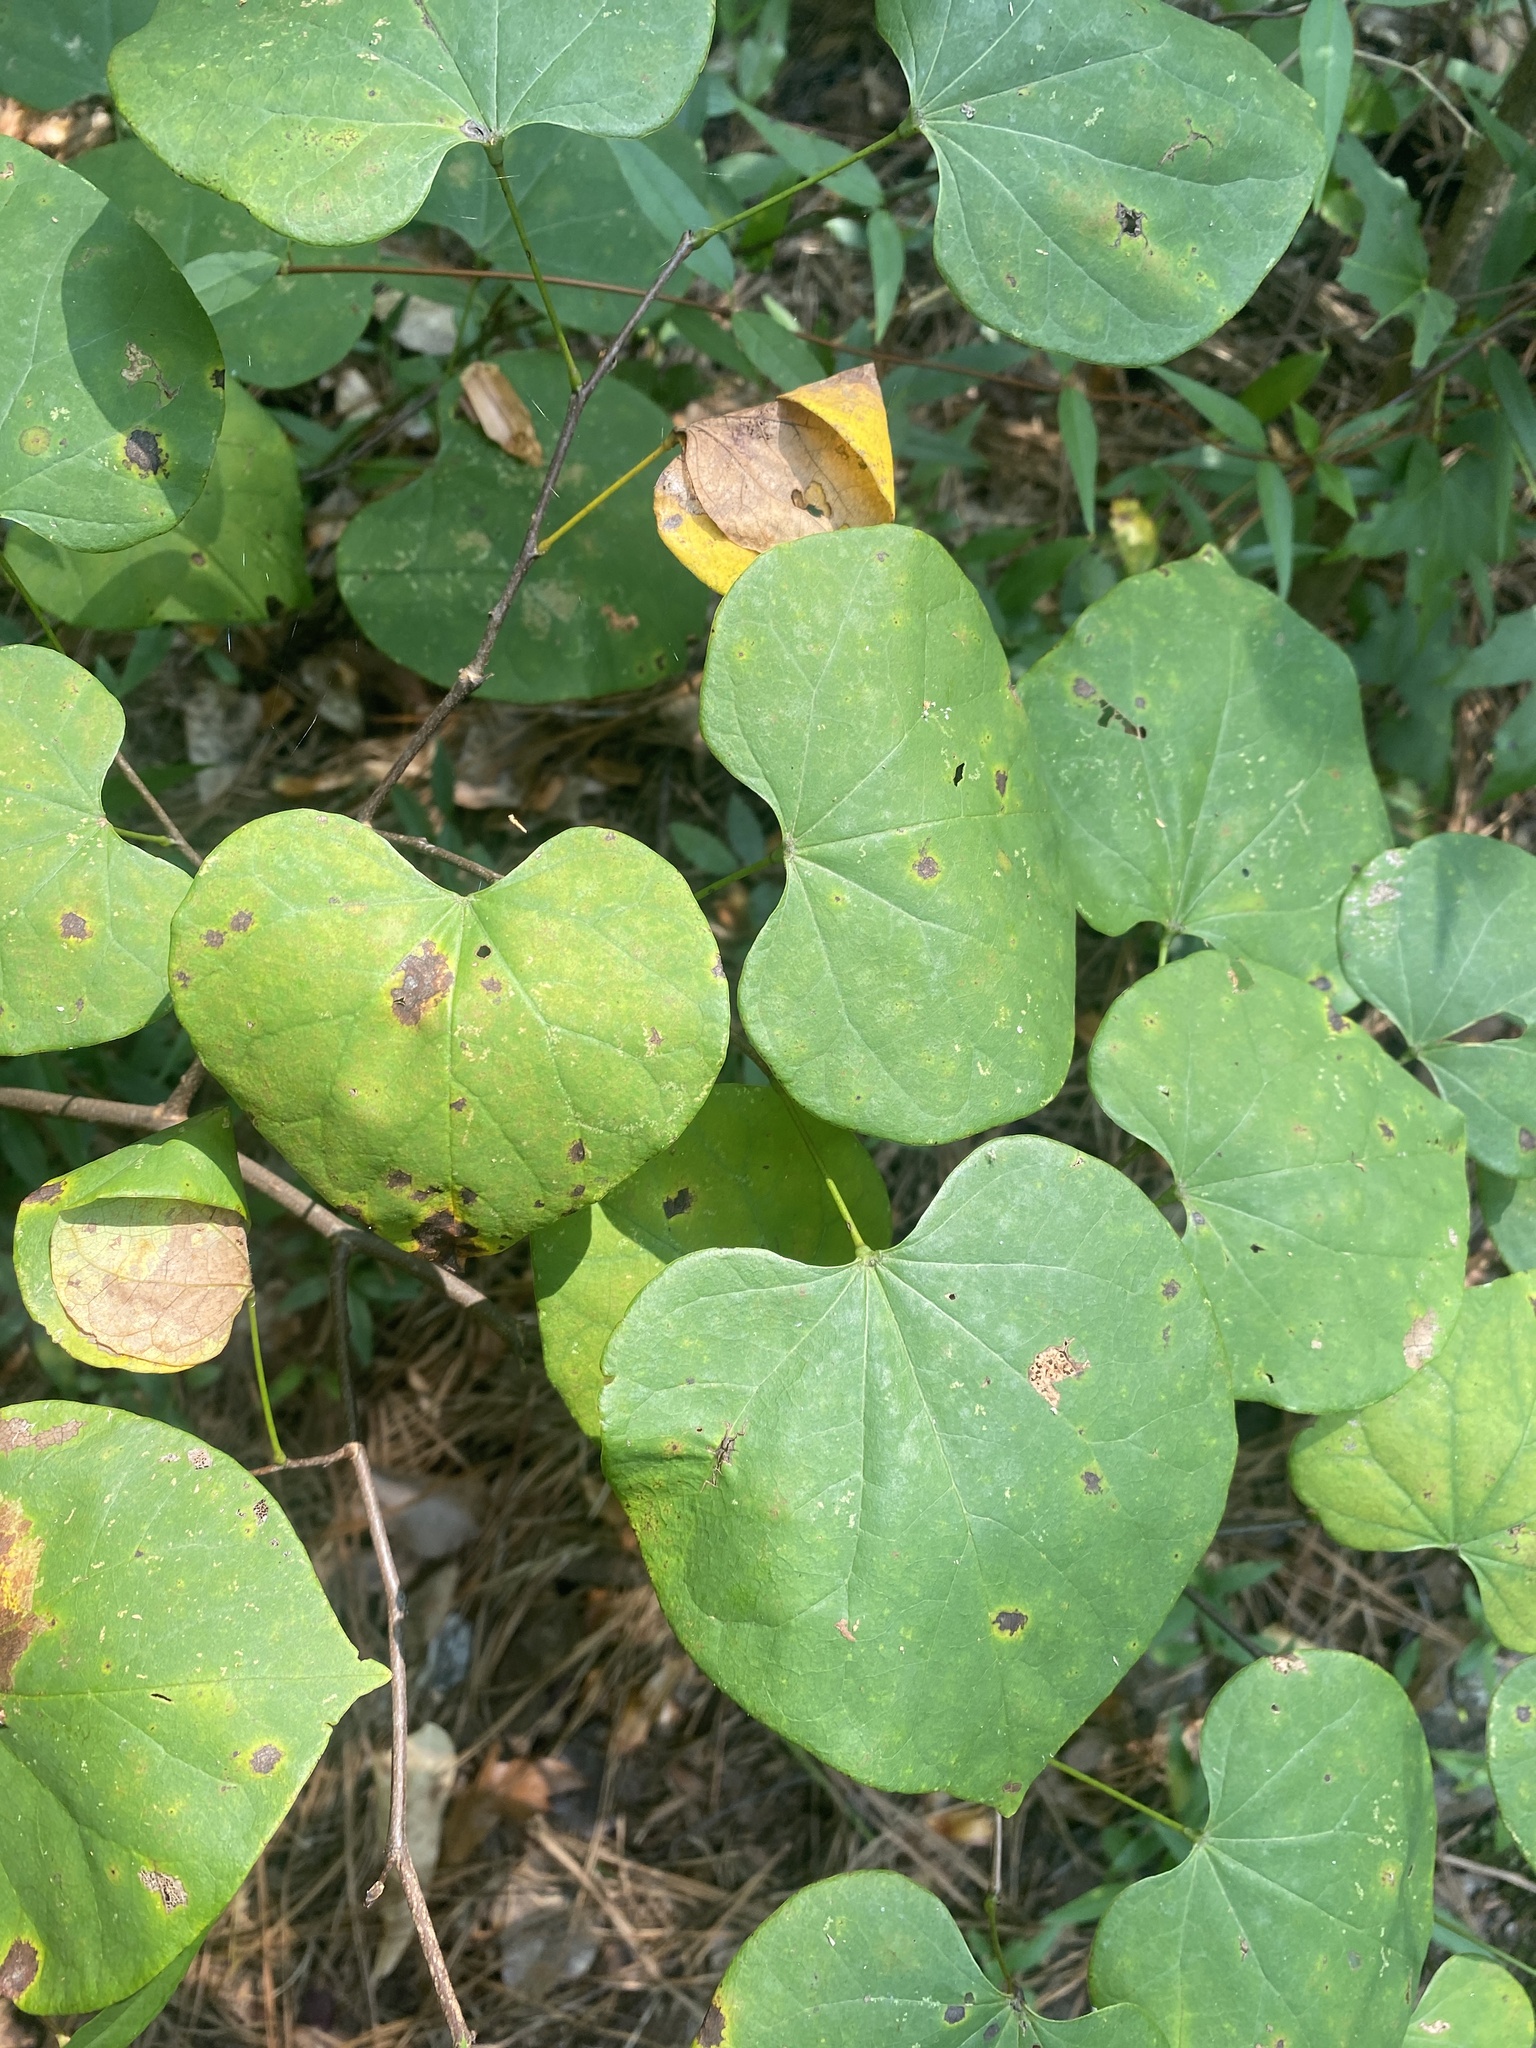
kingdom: Plantae
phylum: Tracheophyta
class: Magnoliopsida
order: Fabales
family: Fabaceae
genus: Cercis
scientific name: Cercis canadensis
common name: Eastern redbud
